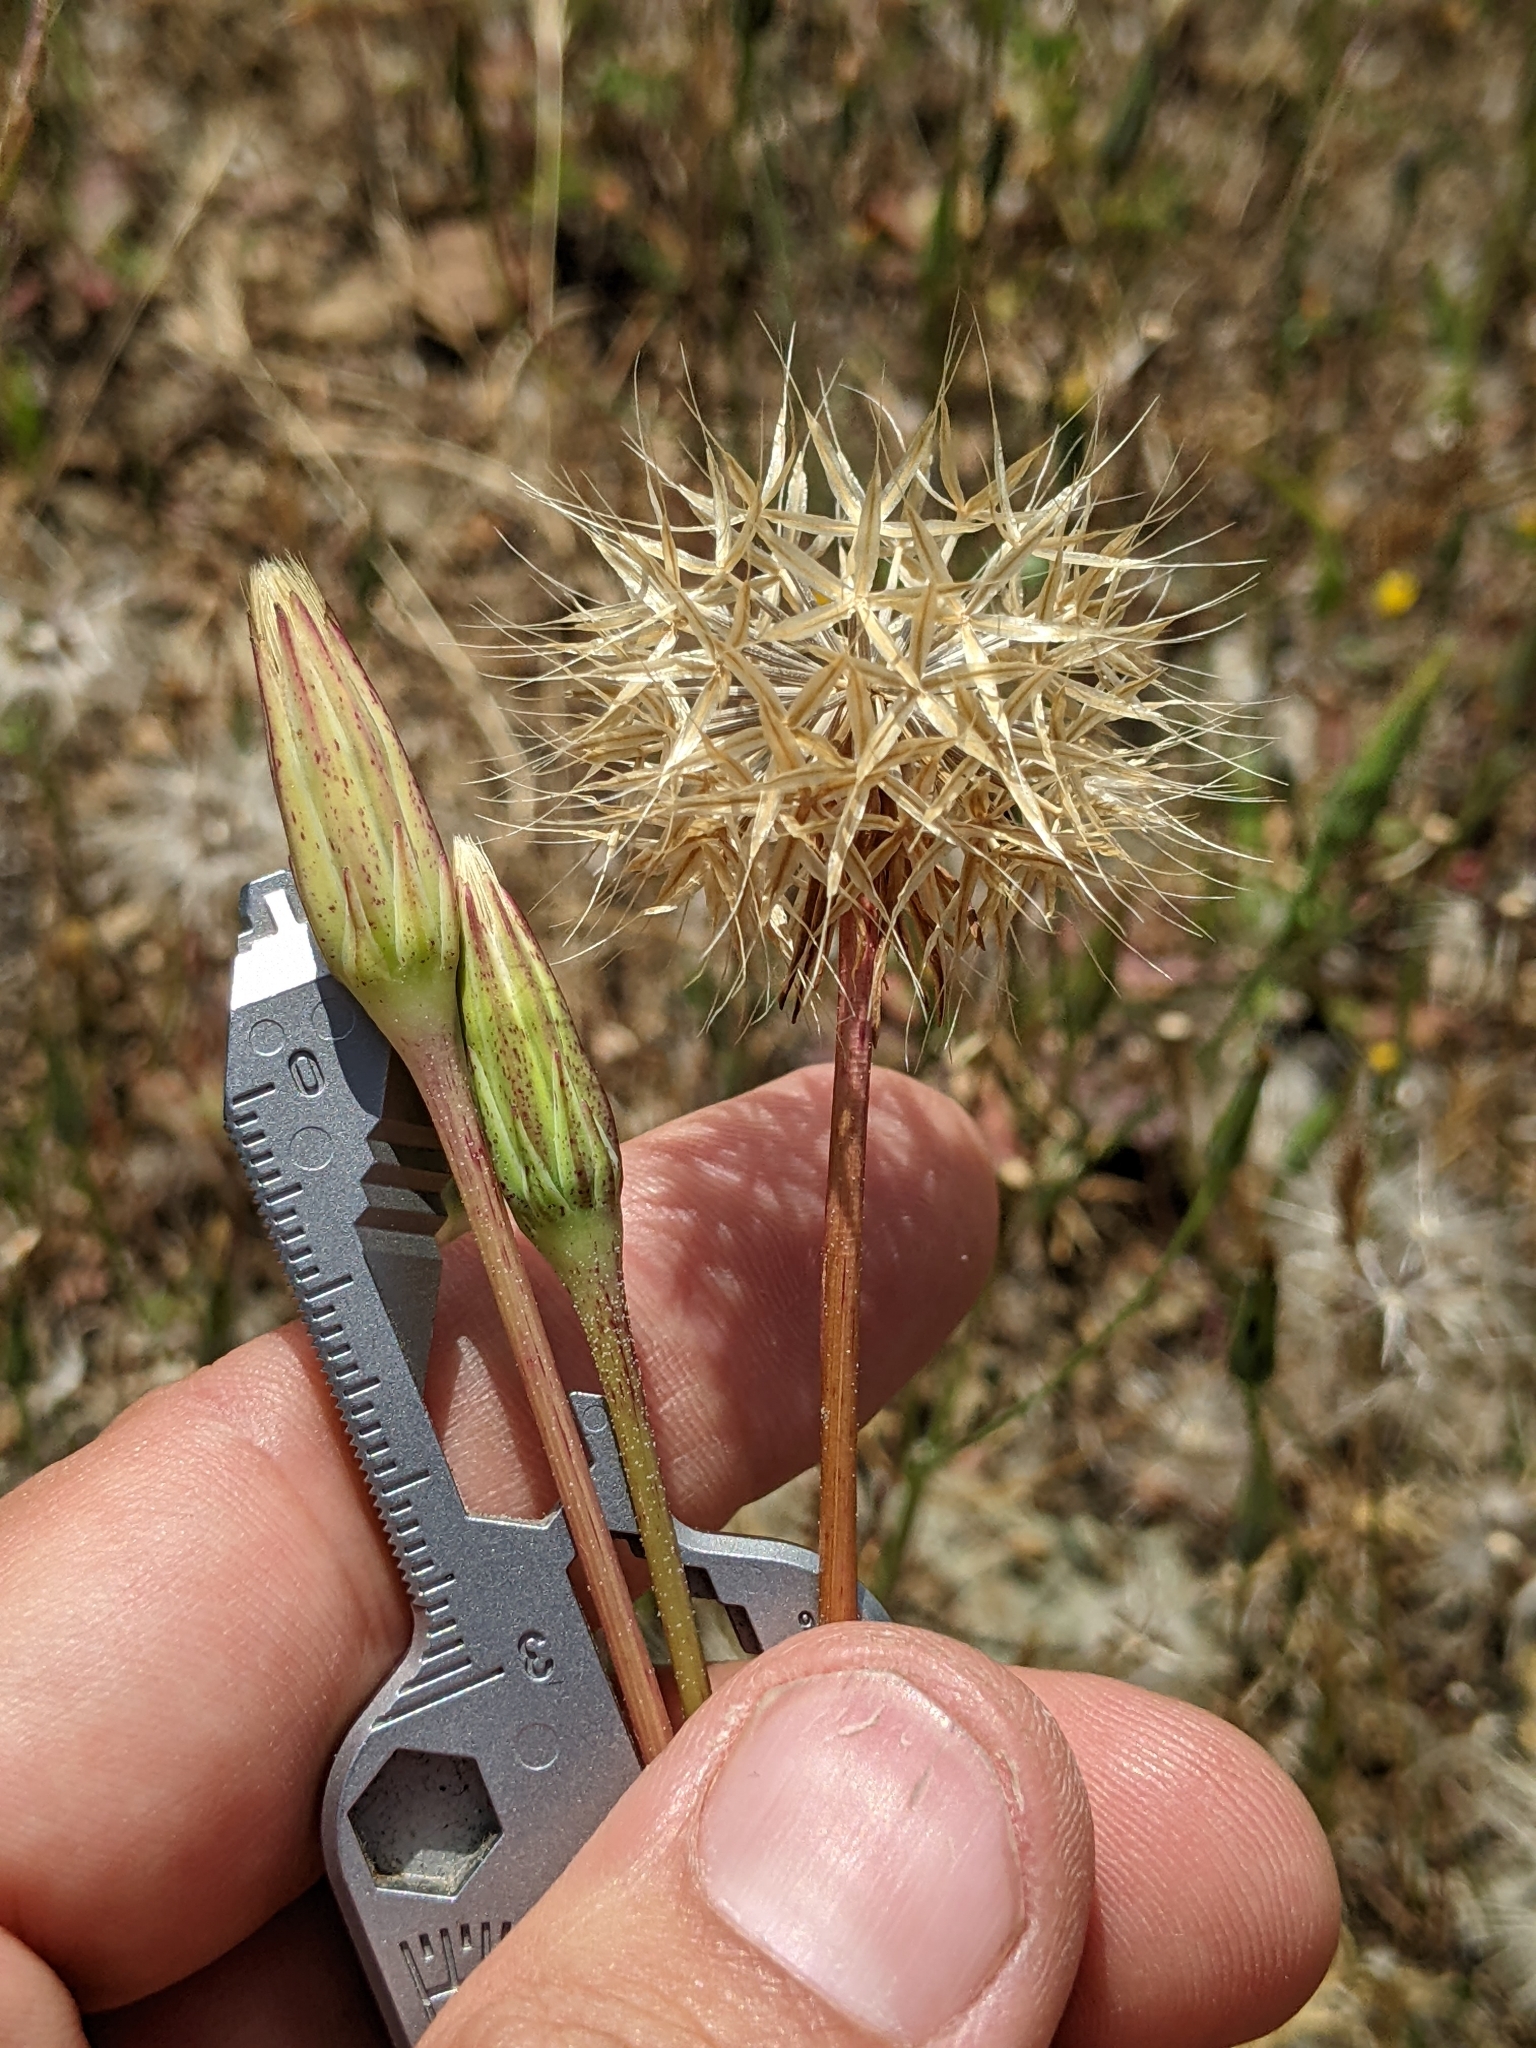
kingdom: Plantae
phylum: Tracheophyta
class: Magnoliopsida
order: Asterales
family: Asteraceae
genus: Microseris
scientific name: Microseris heterocarpa
